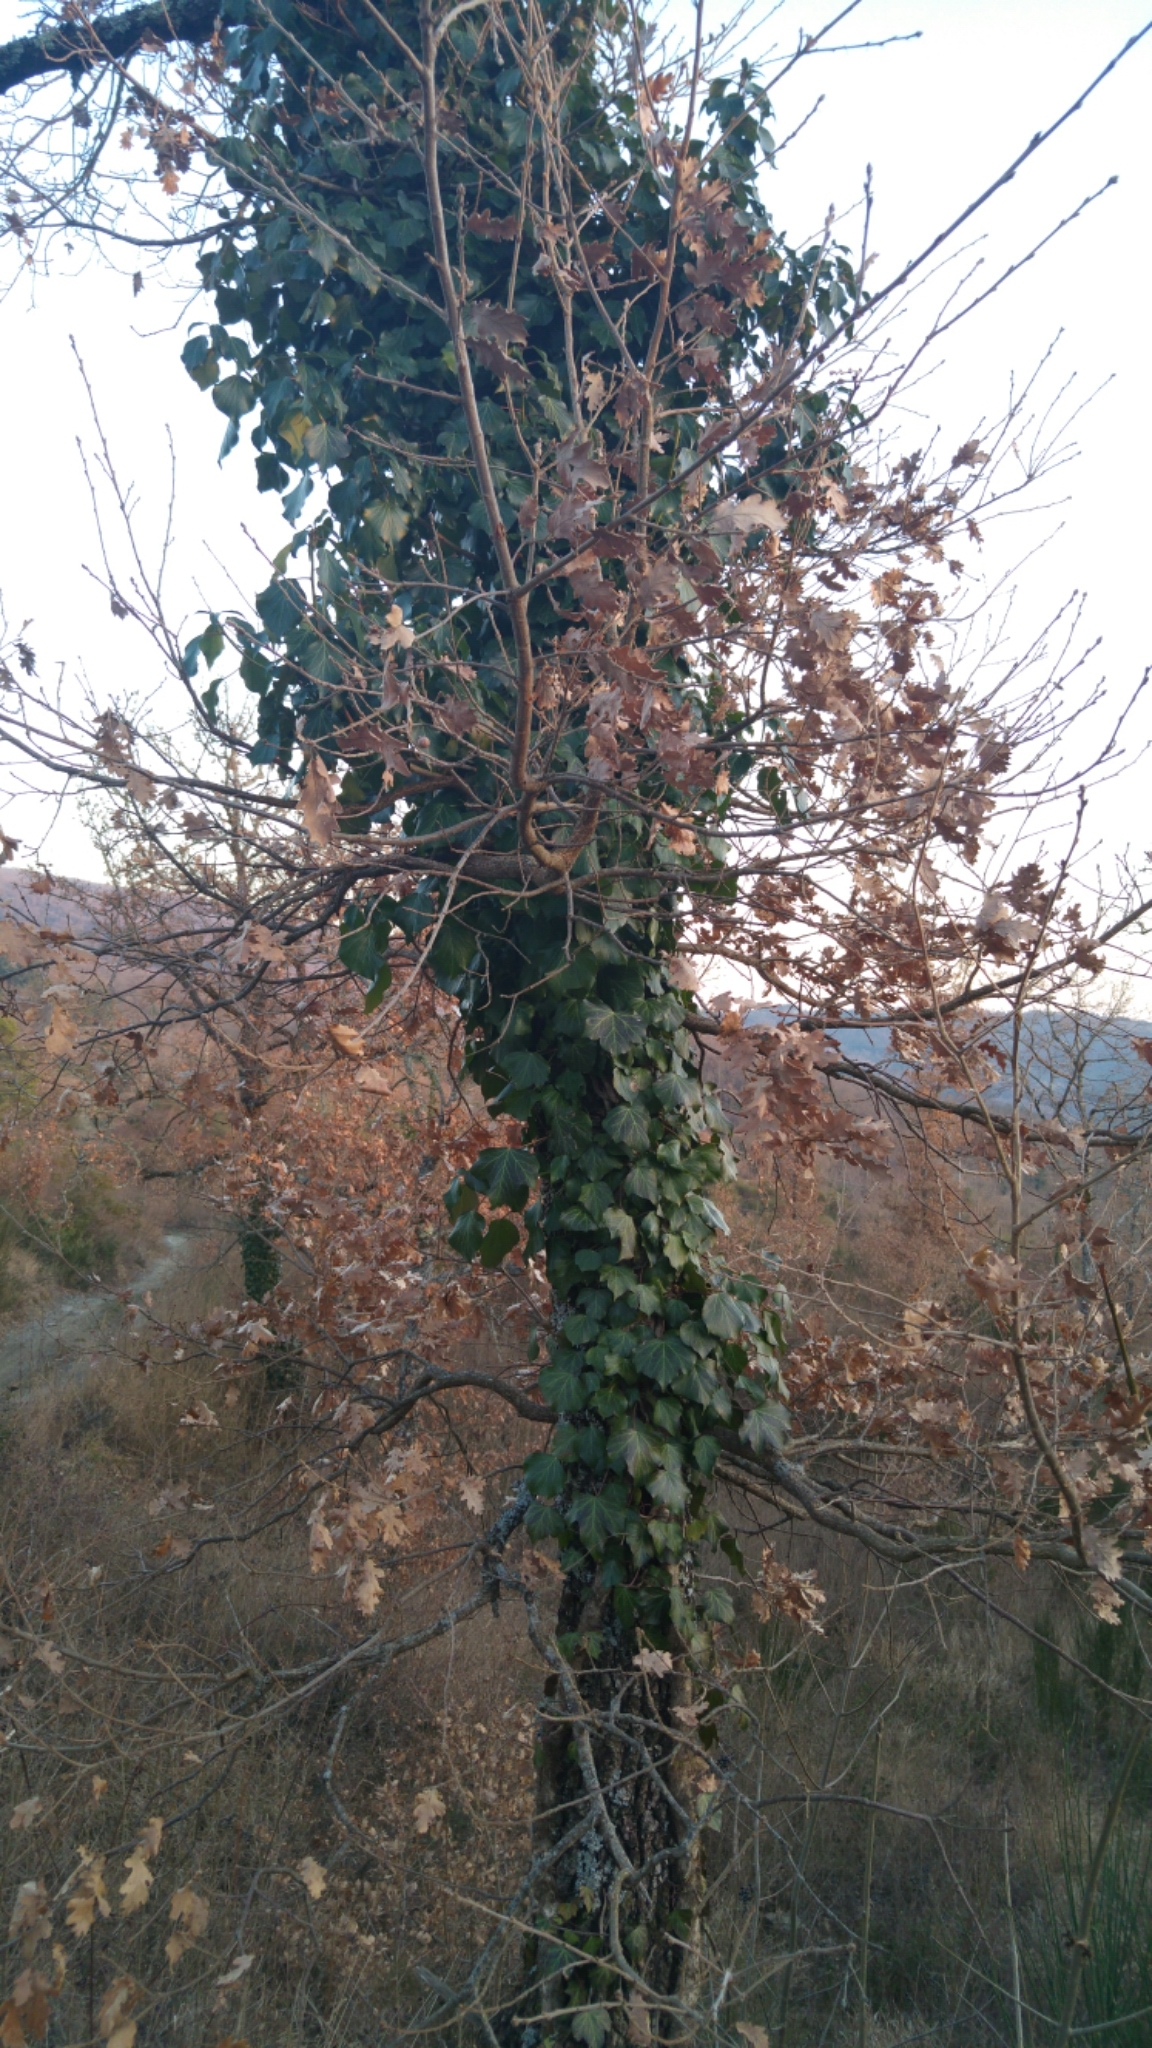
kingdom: Plantae
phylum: Tracheophyta
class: Magnoliopsida
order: Apiales
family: Araliaceae
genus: Hedera
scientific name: Hedera helix
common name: Ivy
